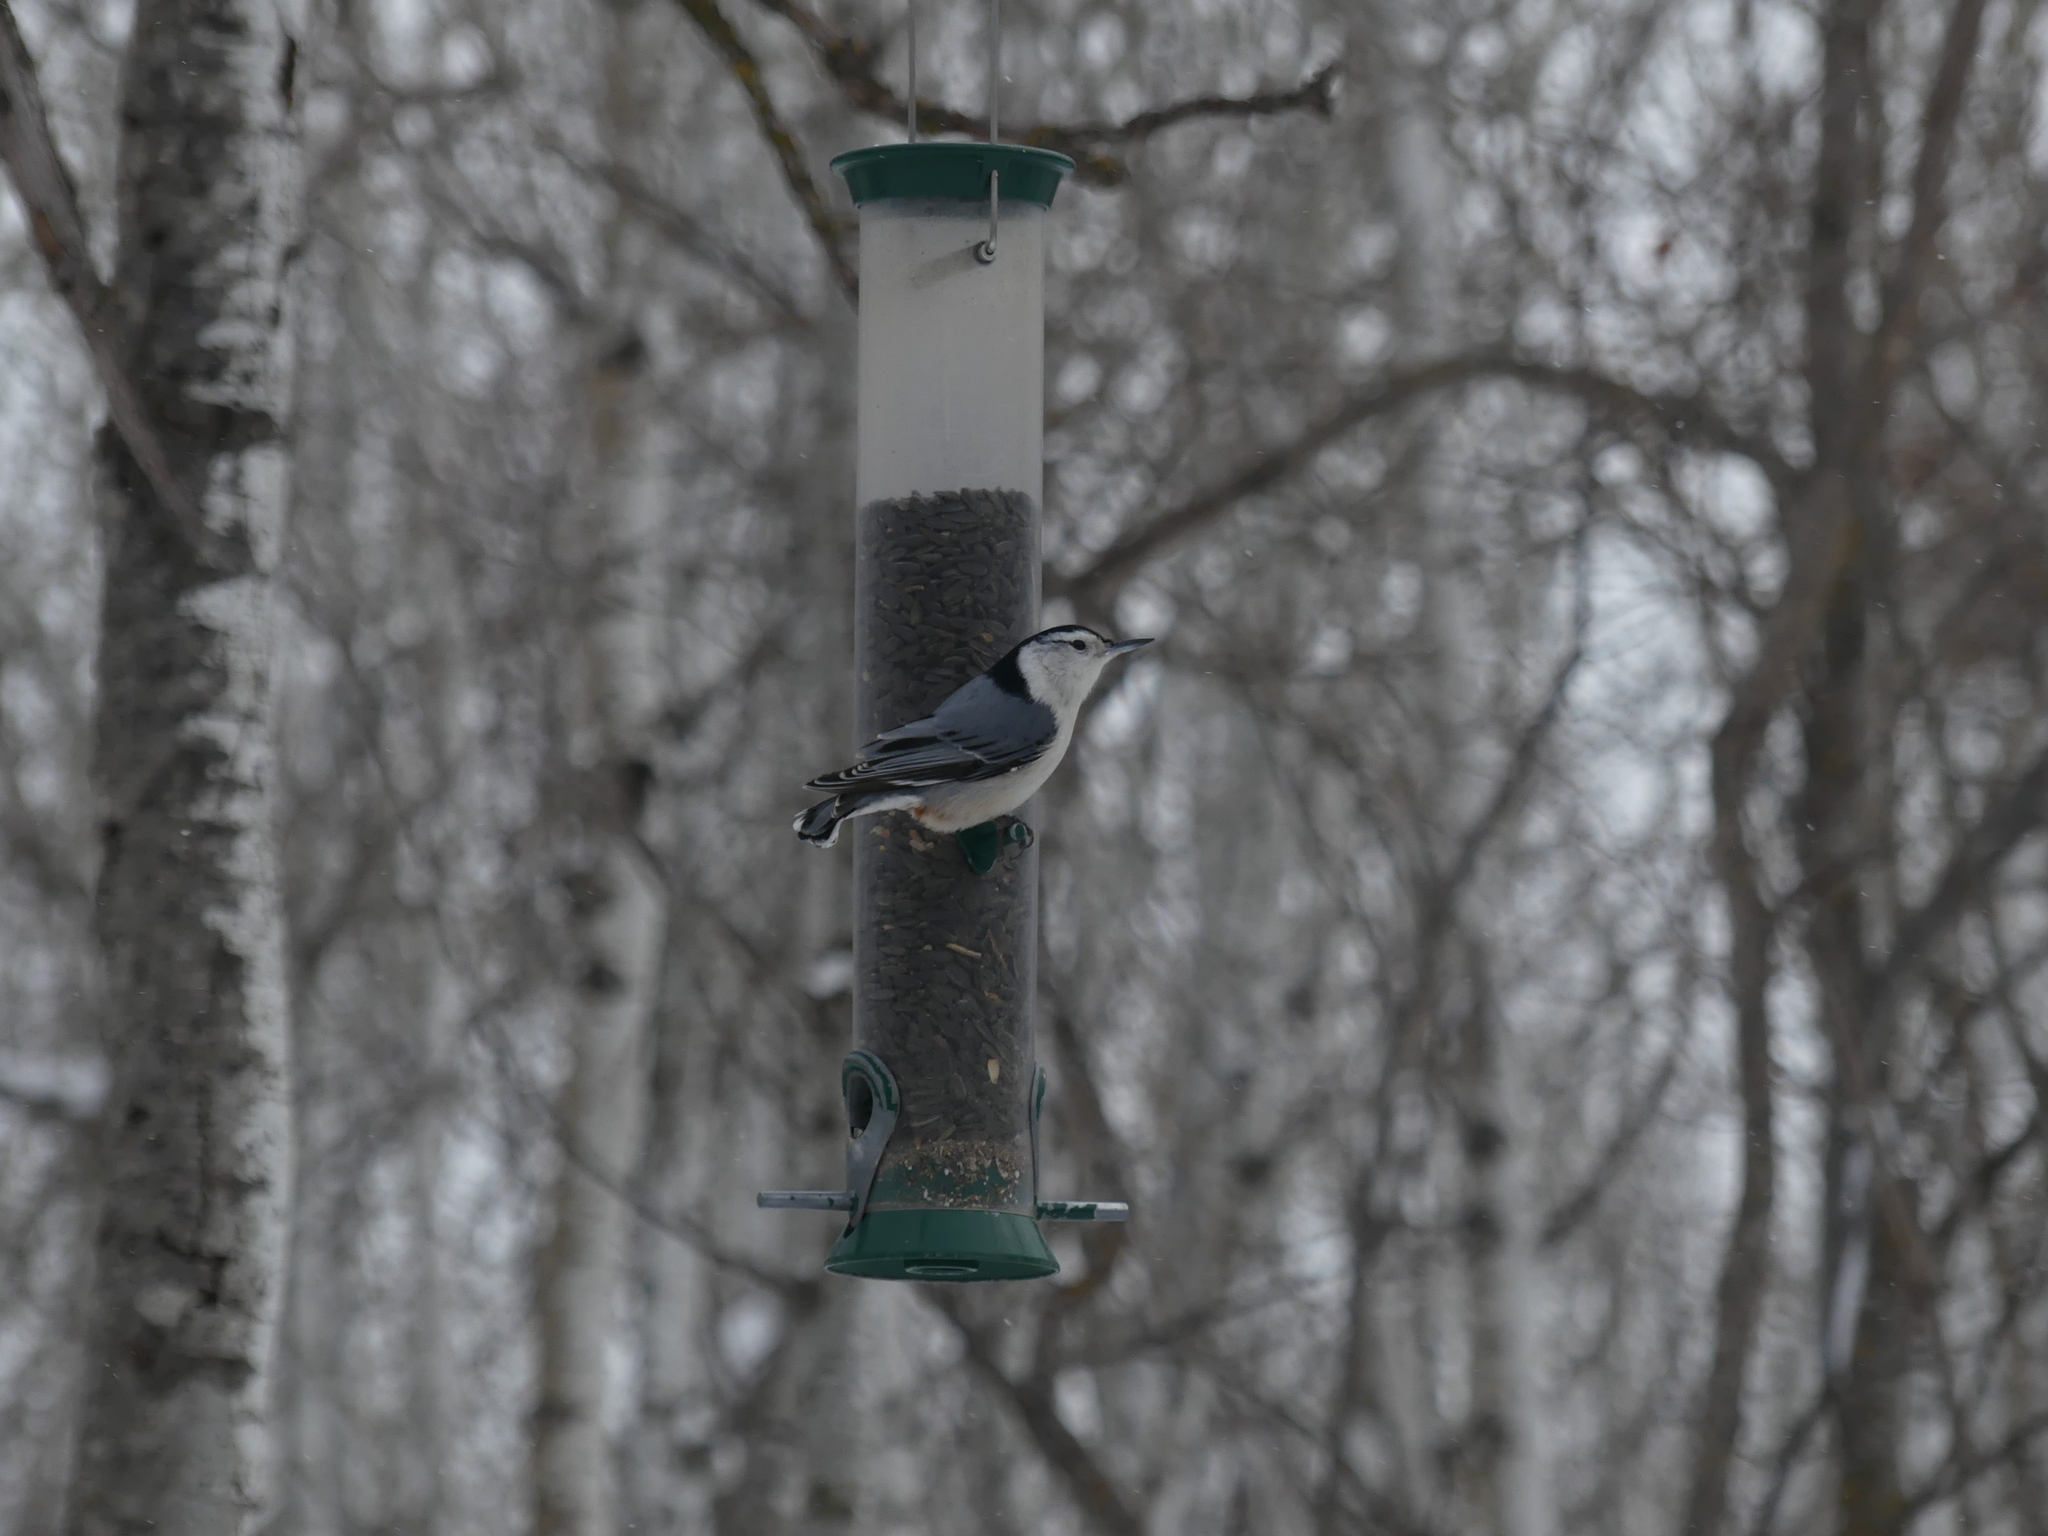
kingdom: Animalia
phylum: Chordata
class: Aves
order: Passeriformes
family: Sittidae
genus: Sitta
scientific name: Sitta carolinensis
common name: White-breasted nuthatch
